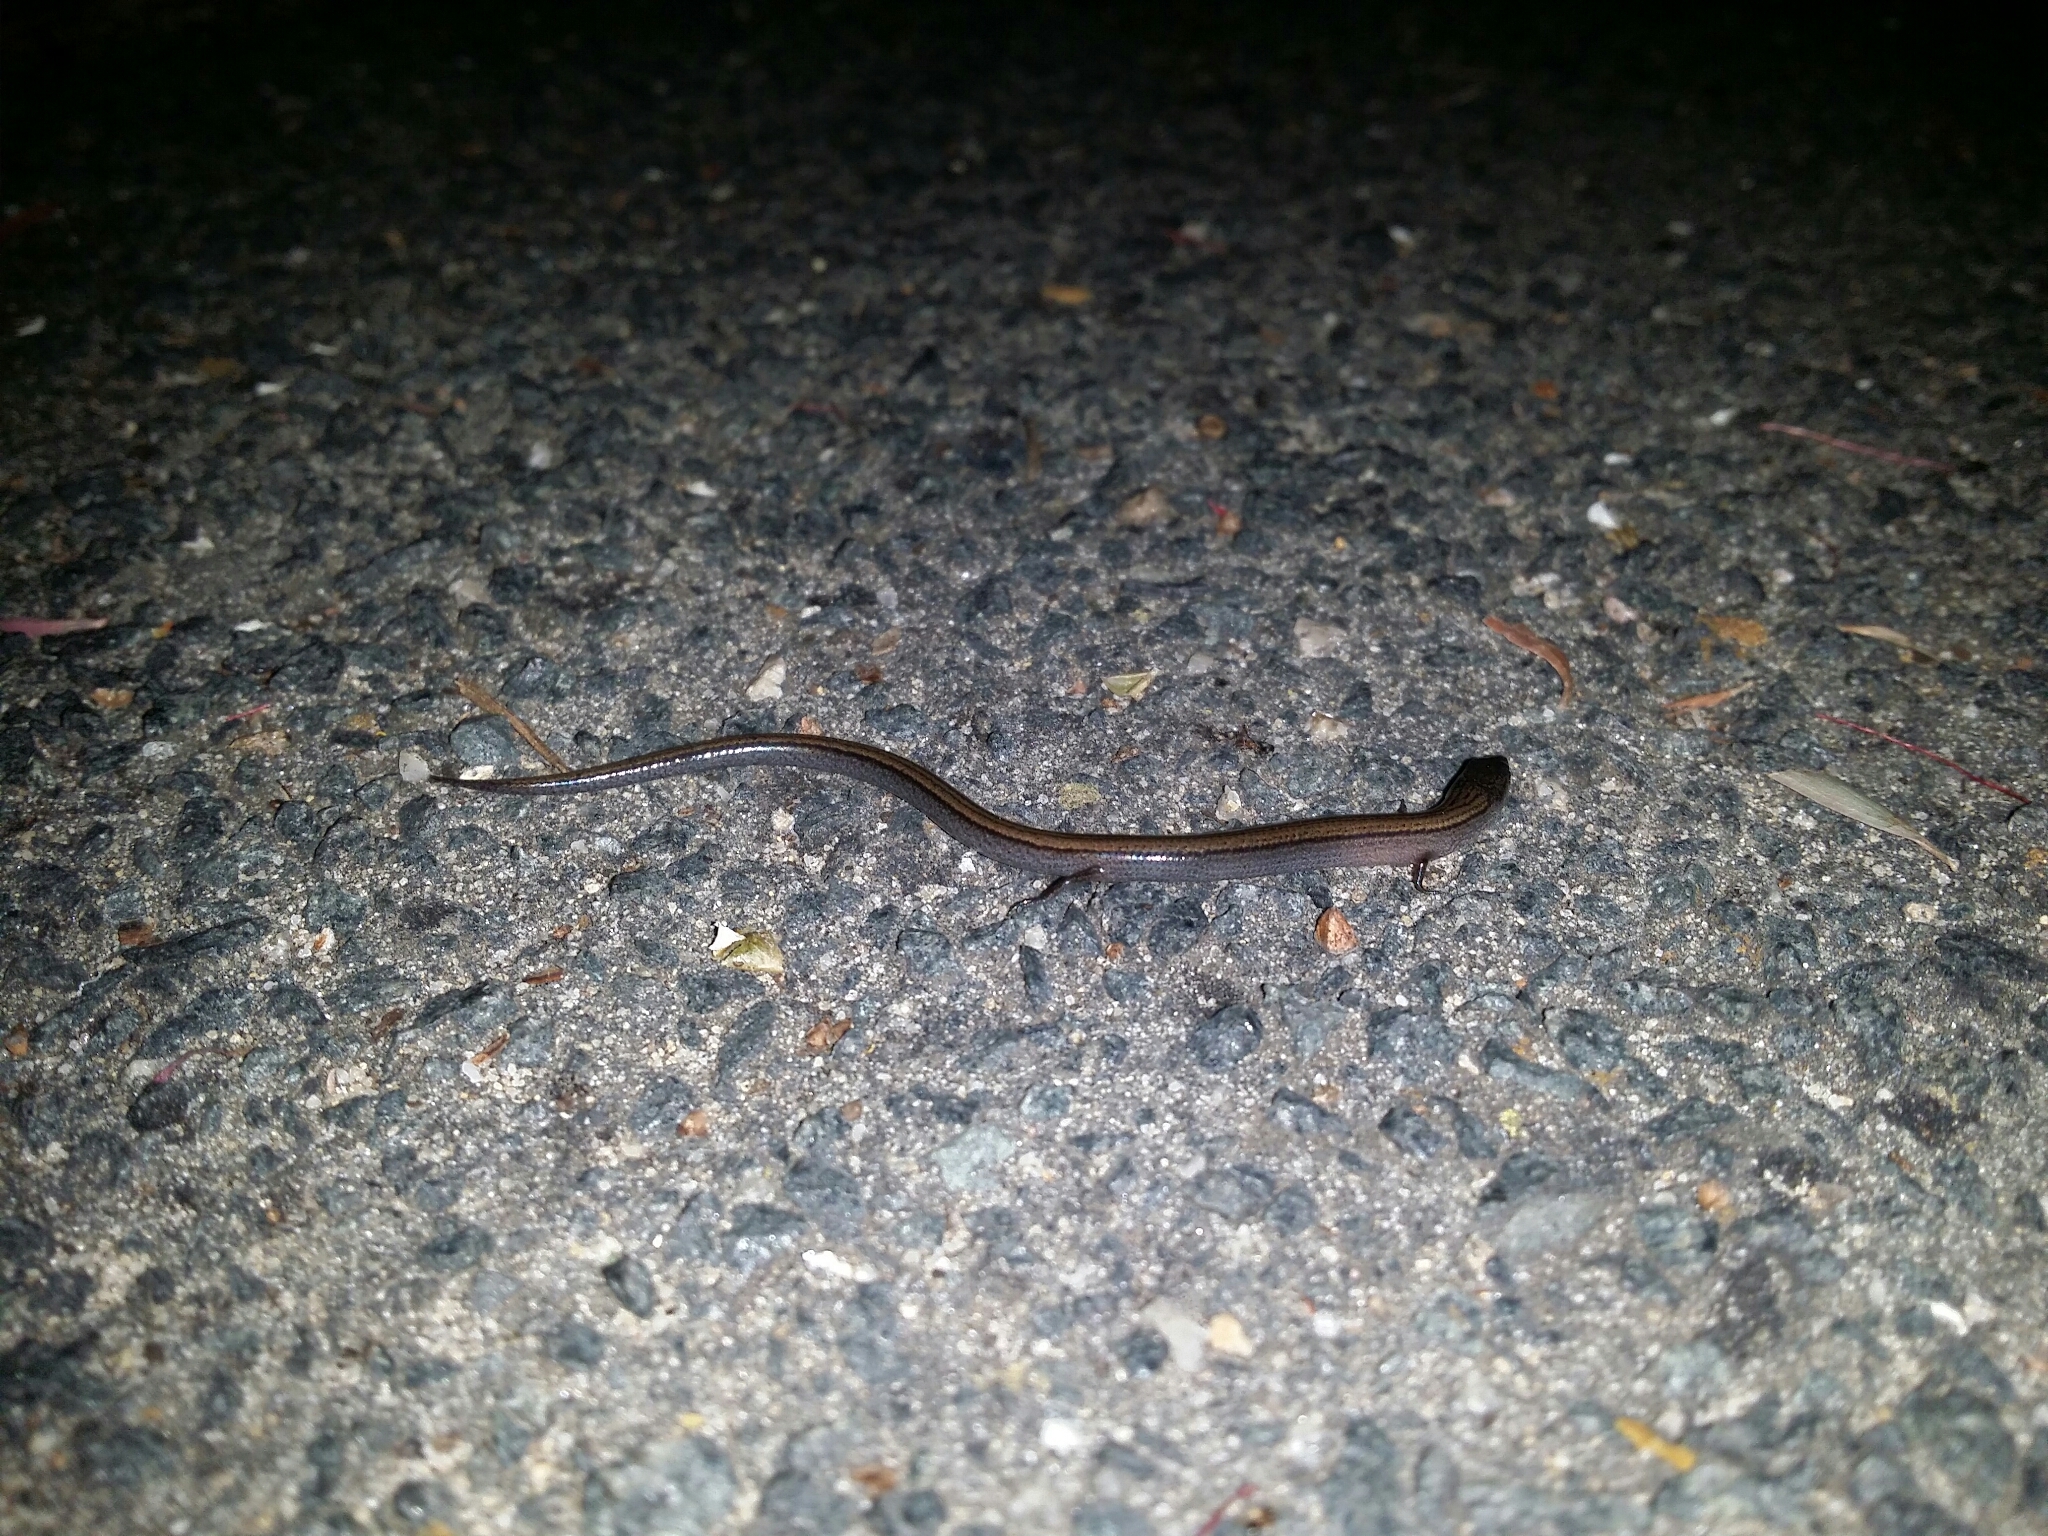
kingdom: Animalia
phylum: Chordata
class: Squamata
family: Scincidae
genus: Hemiergis
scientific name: Hemiergis quadrilineatus
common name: Two-toed earless skink
